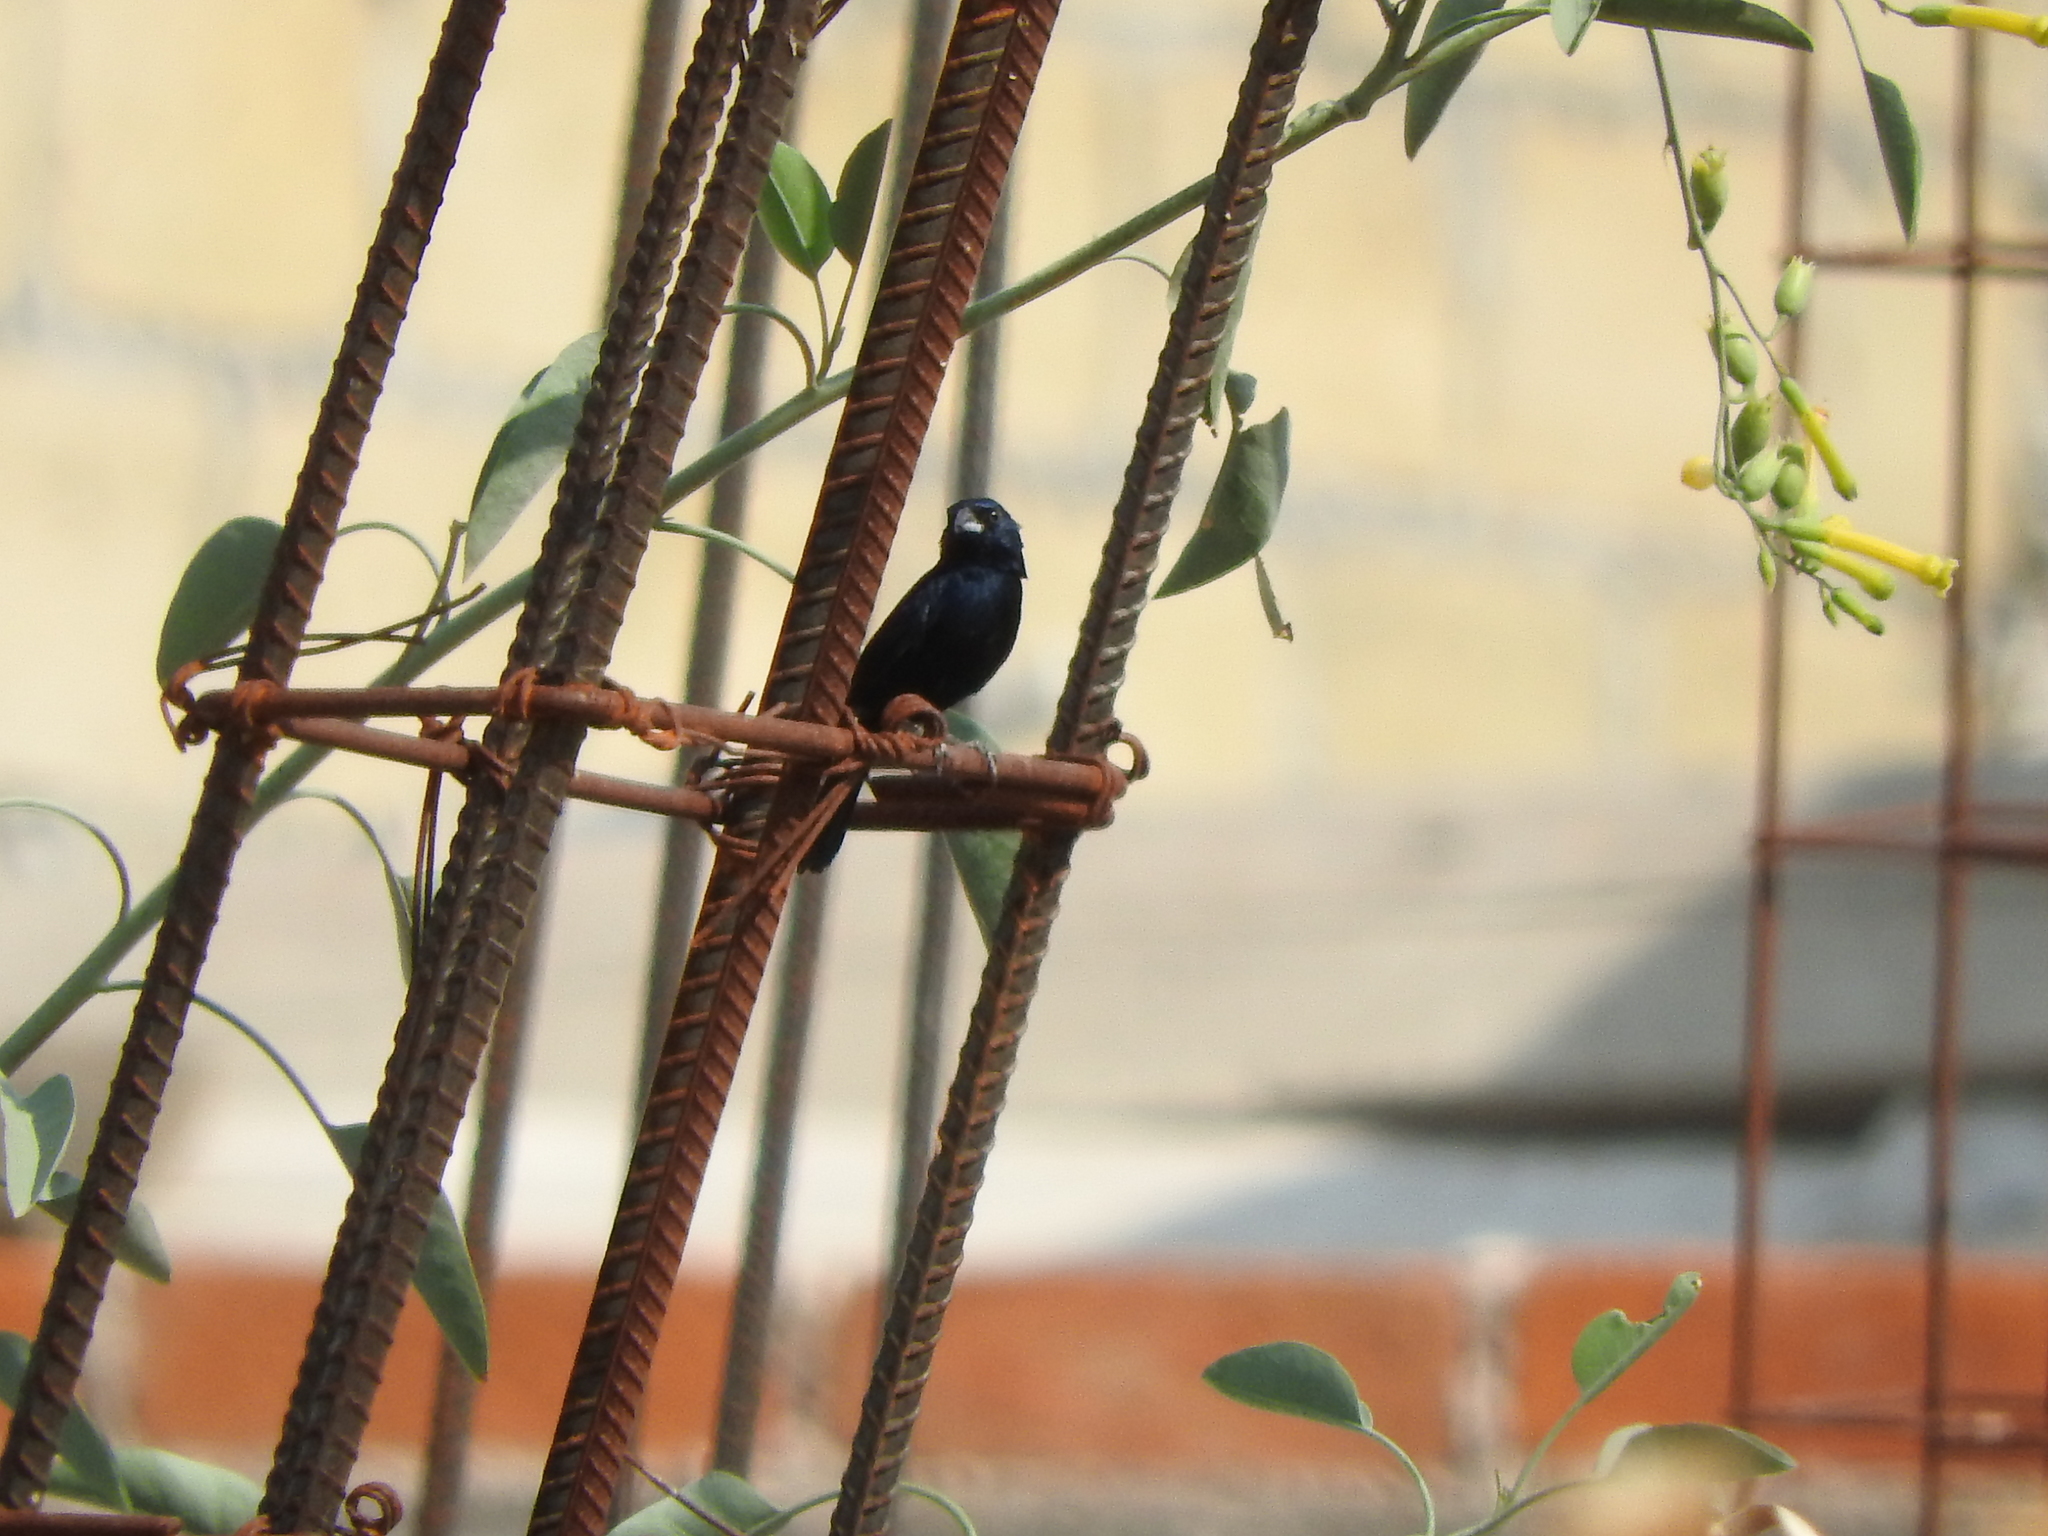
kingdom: Animalia
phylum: Chordata
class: Aves
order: Passeriformes
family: Thraupidae
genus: Volatinia
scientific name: Volatinia jacarina
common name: Blue-black grassquit
